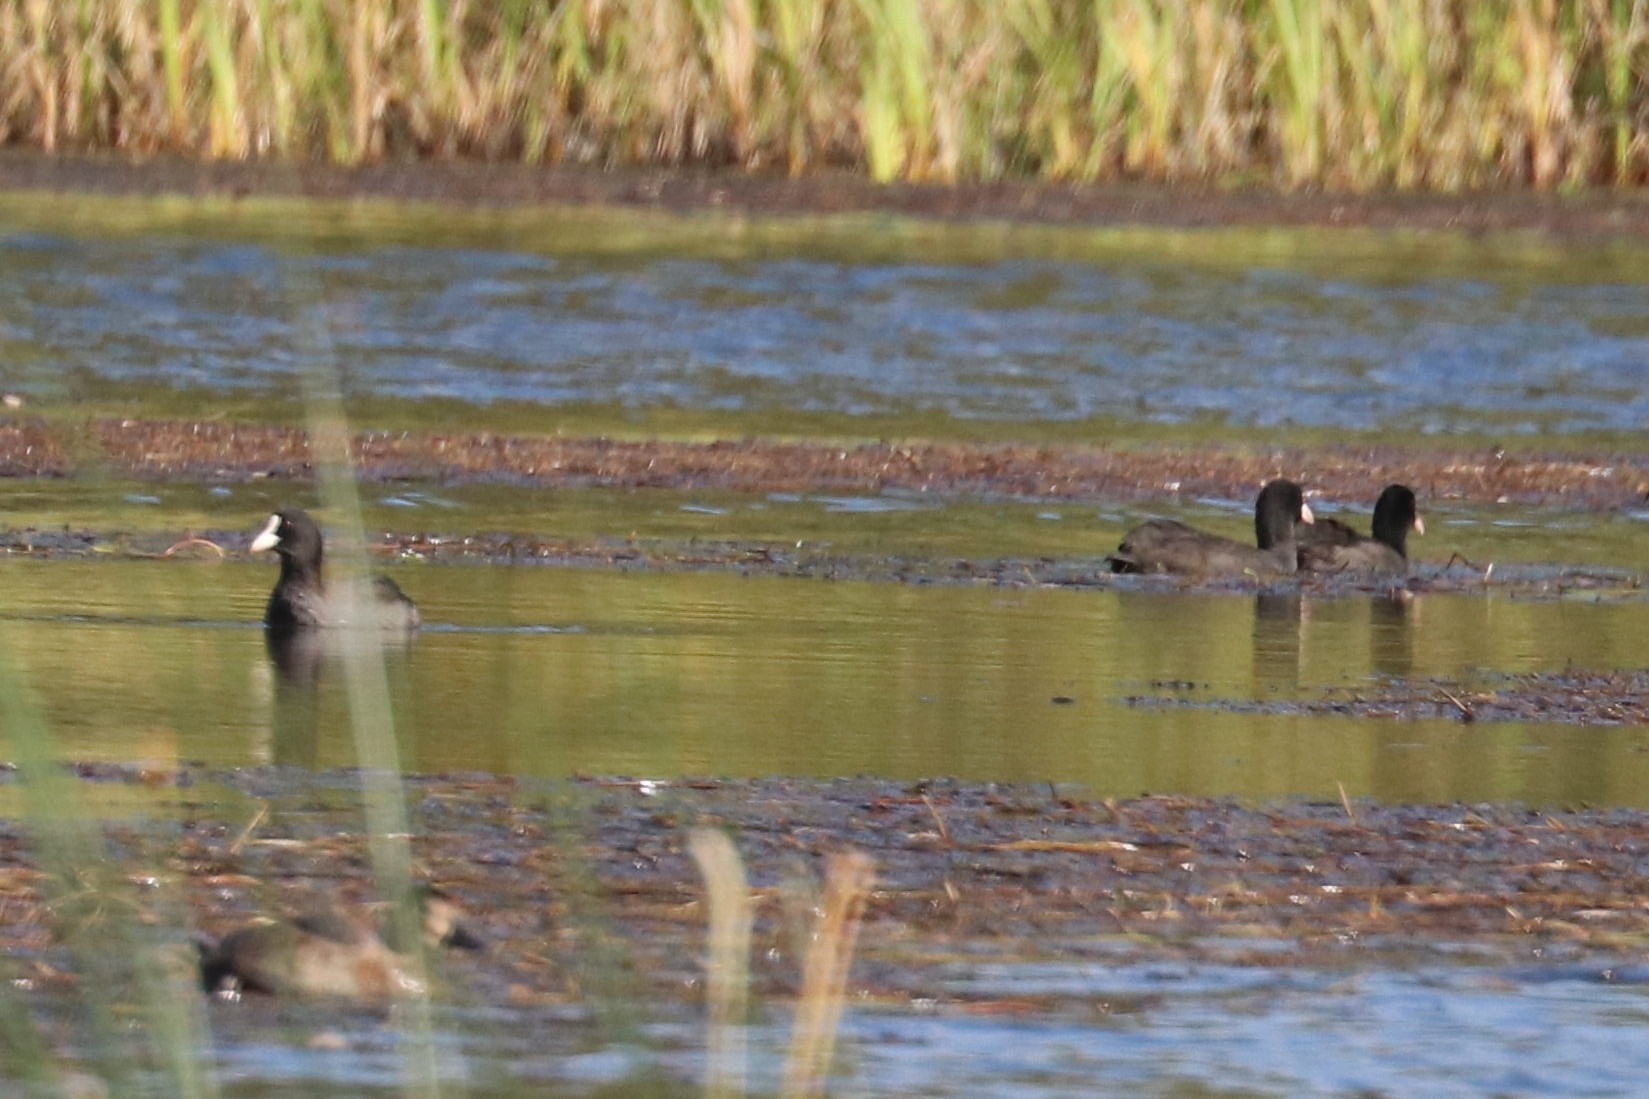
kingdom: Animalia
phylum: Chordata
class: Aves
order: Gruiformes
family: Rallidae
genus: Fulica
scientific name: Fulica atra
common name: Eurasian coot
